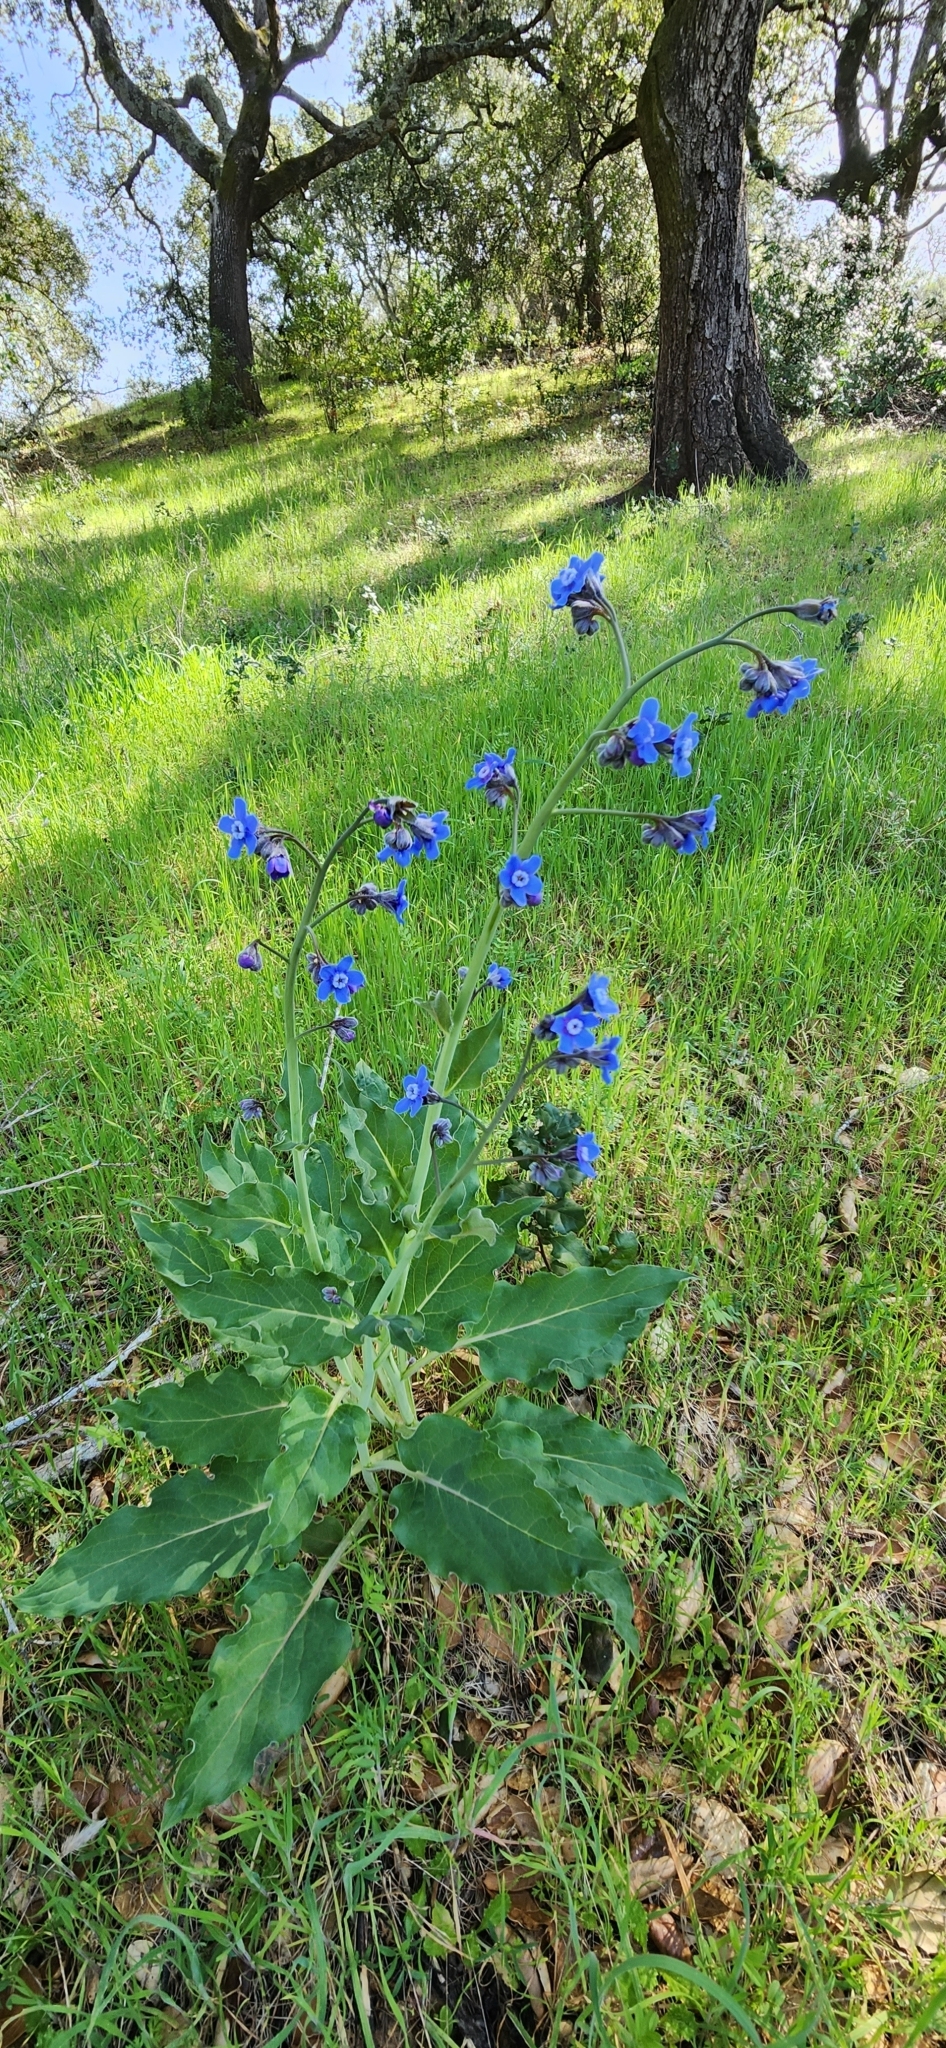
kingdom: Plantae
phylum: Tracheophyta
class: Magnoliopsida
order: Boraginales
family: Boraginaceae
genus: Adelinia
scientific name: Adelinia grande
